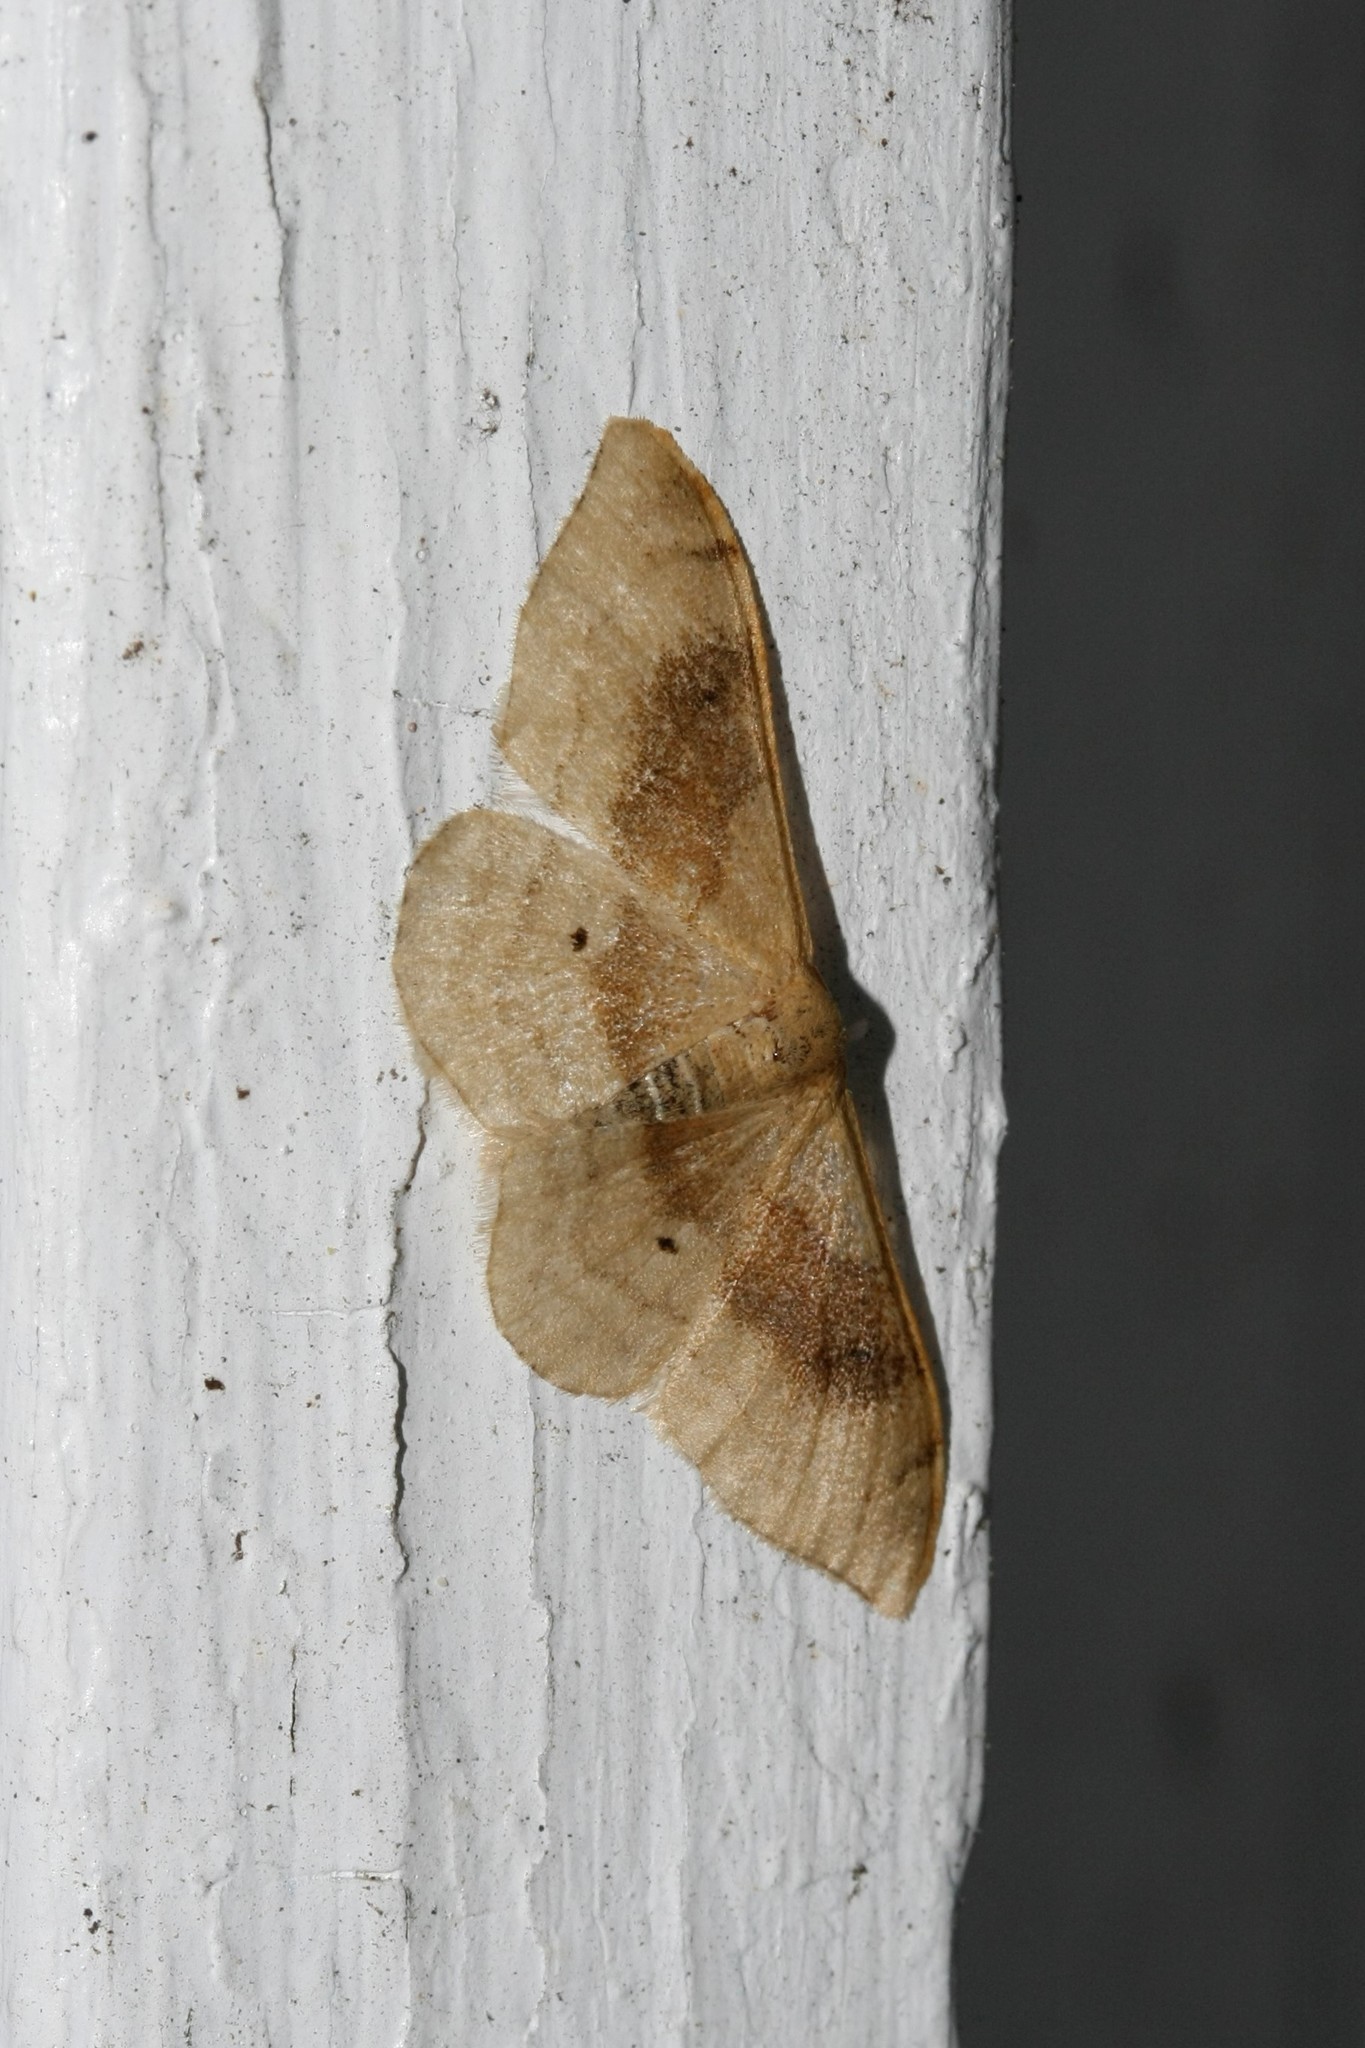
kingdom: Animalia
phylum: Arthropoda
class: Insecta
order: Lepidoptera
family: Geometridae
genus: Idaea
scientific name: Idaea degeneraria
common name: Portland ribbon wave
